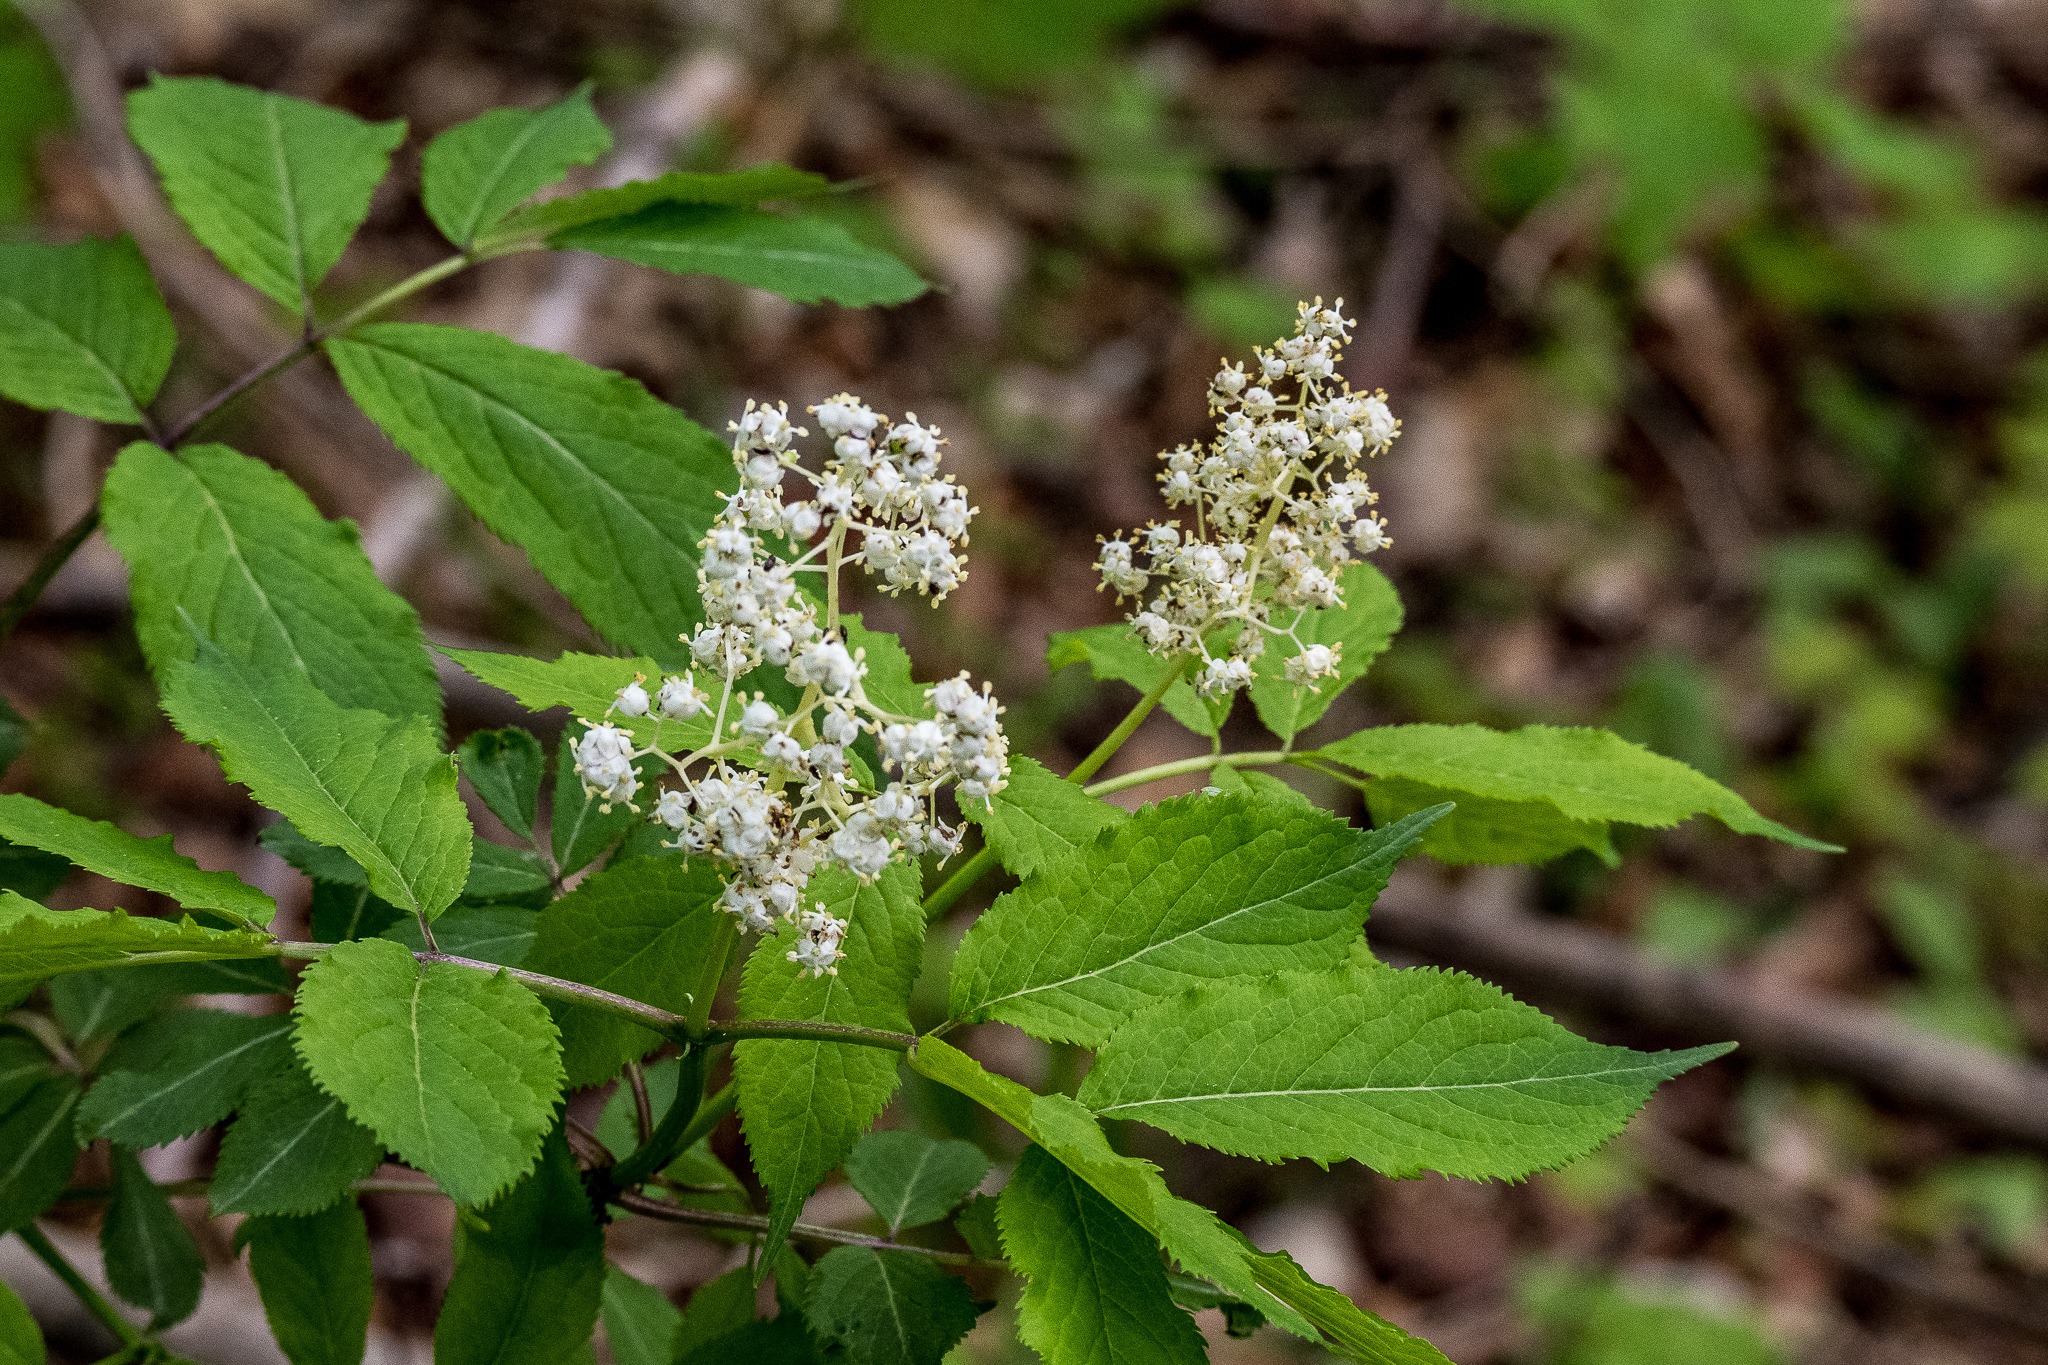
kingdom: Plantae
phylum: Tracheophyta
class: Magnoliopsida
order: Dipsacales
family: Viburnaceae
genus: Sambucus
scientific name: Sambucus racemosa
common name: Red-berried elder
